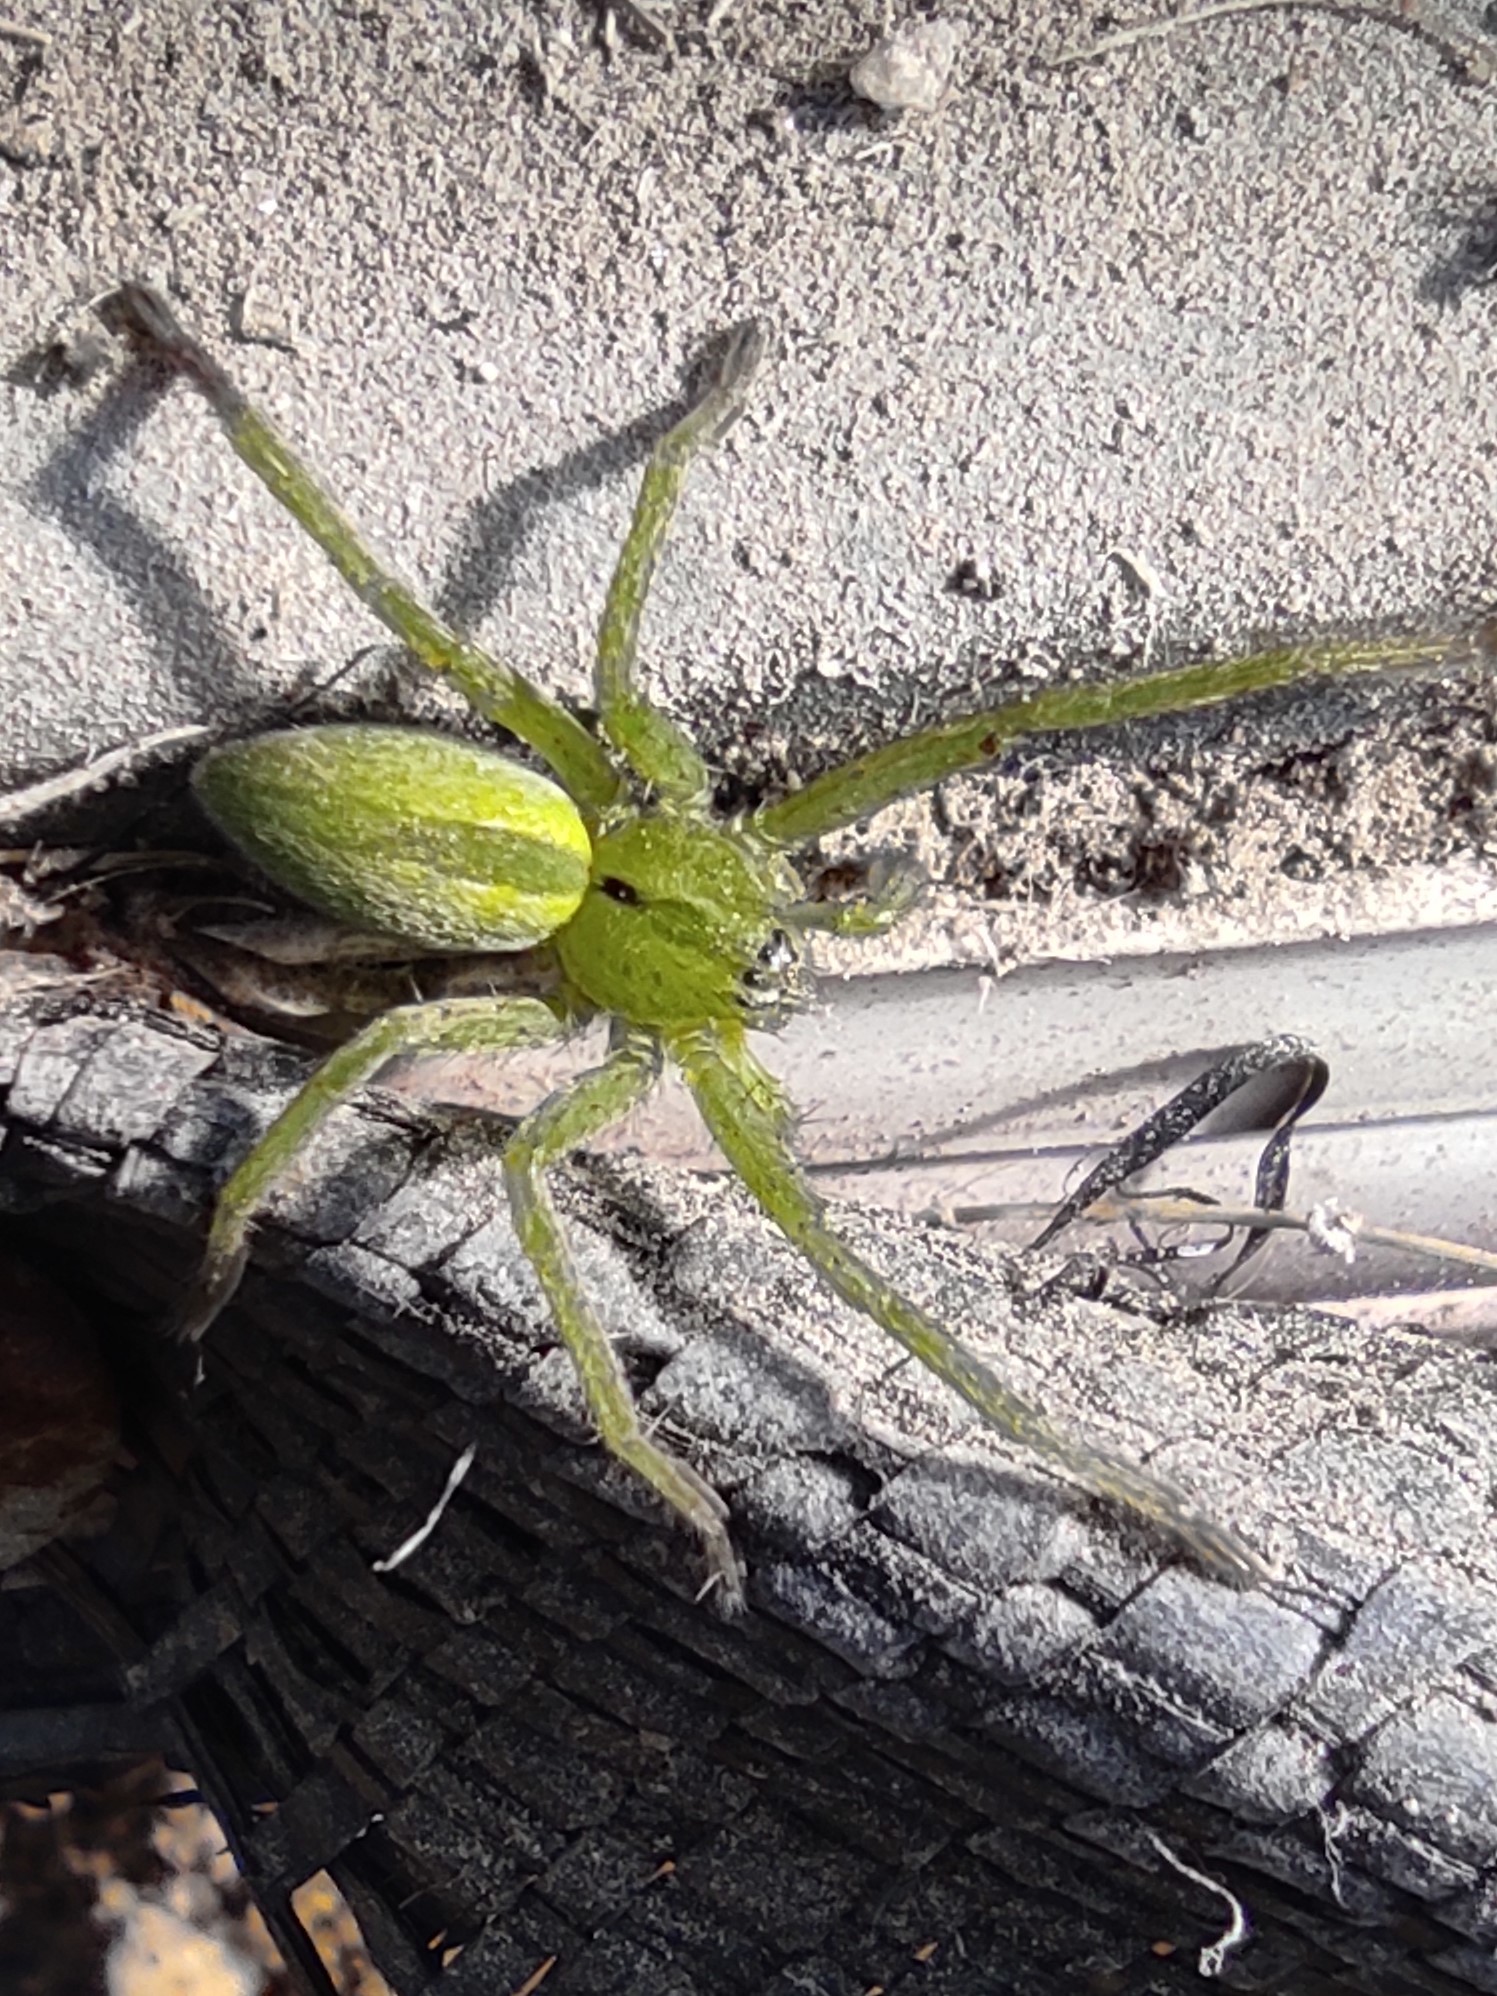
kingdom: Animalia
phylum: Arthropoda
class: Arachnida
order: Araneae
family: Sparassidae
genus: Micrommata
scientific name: Micrommata ligurina
